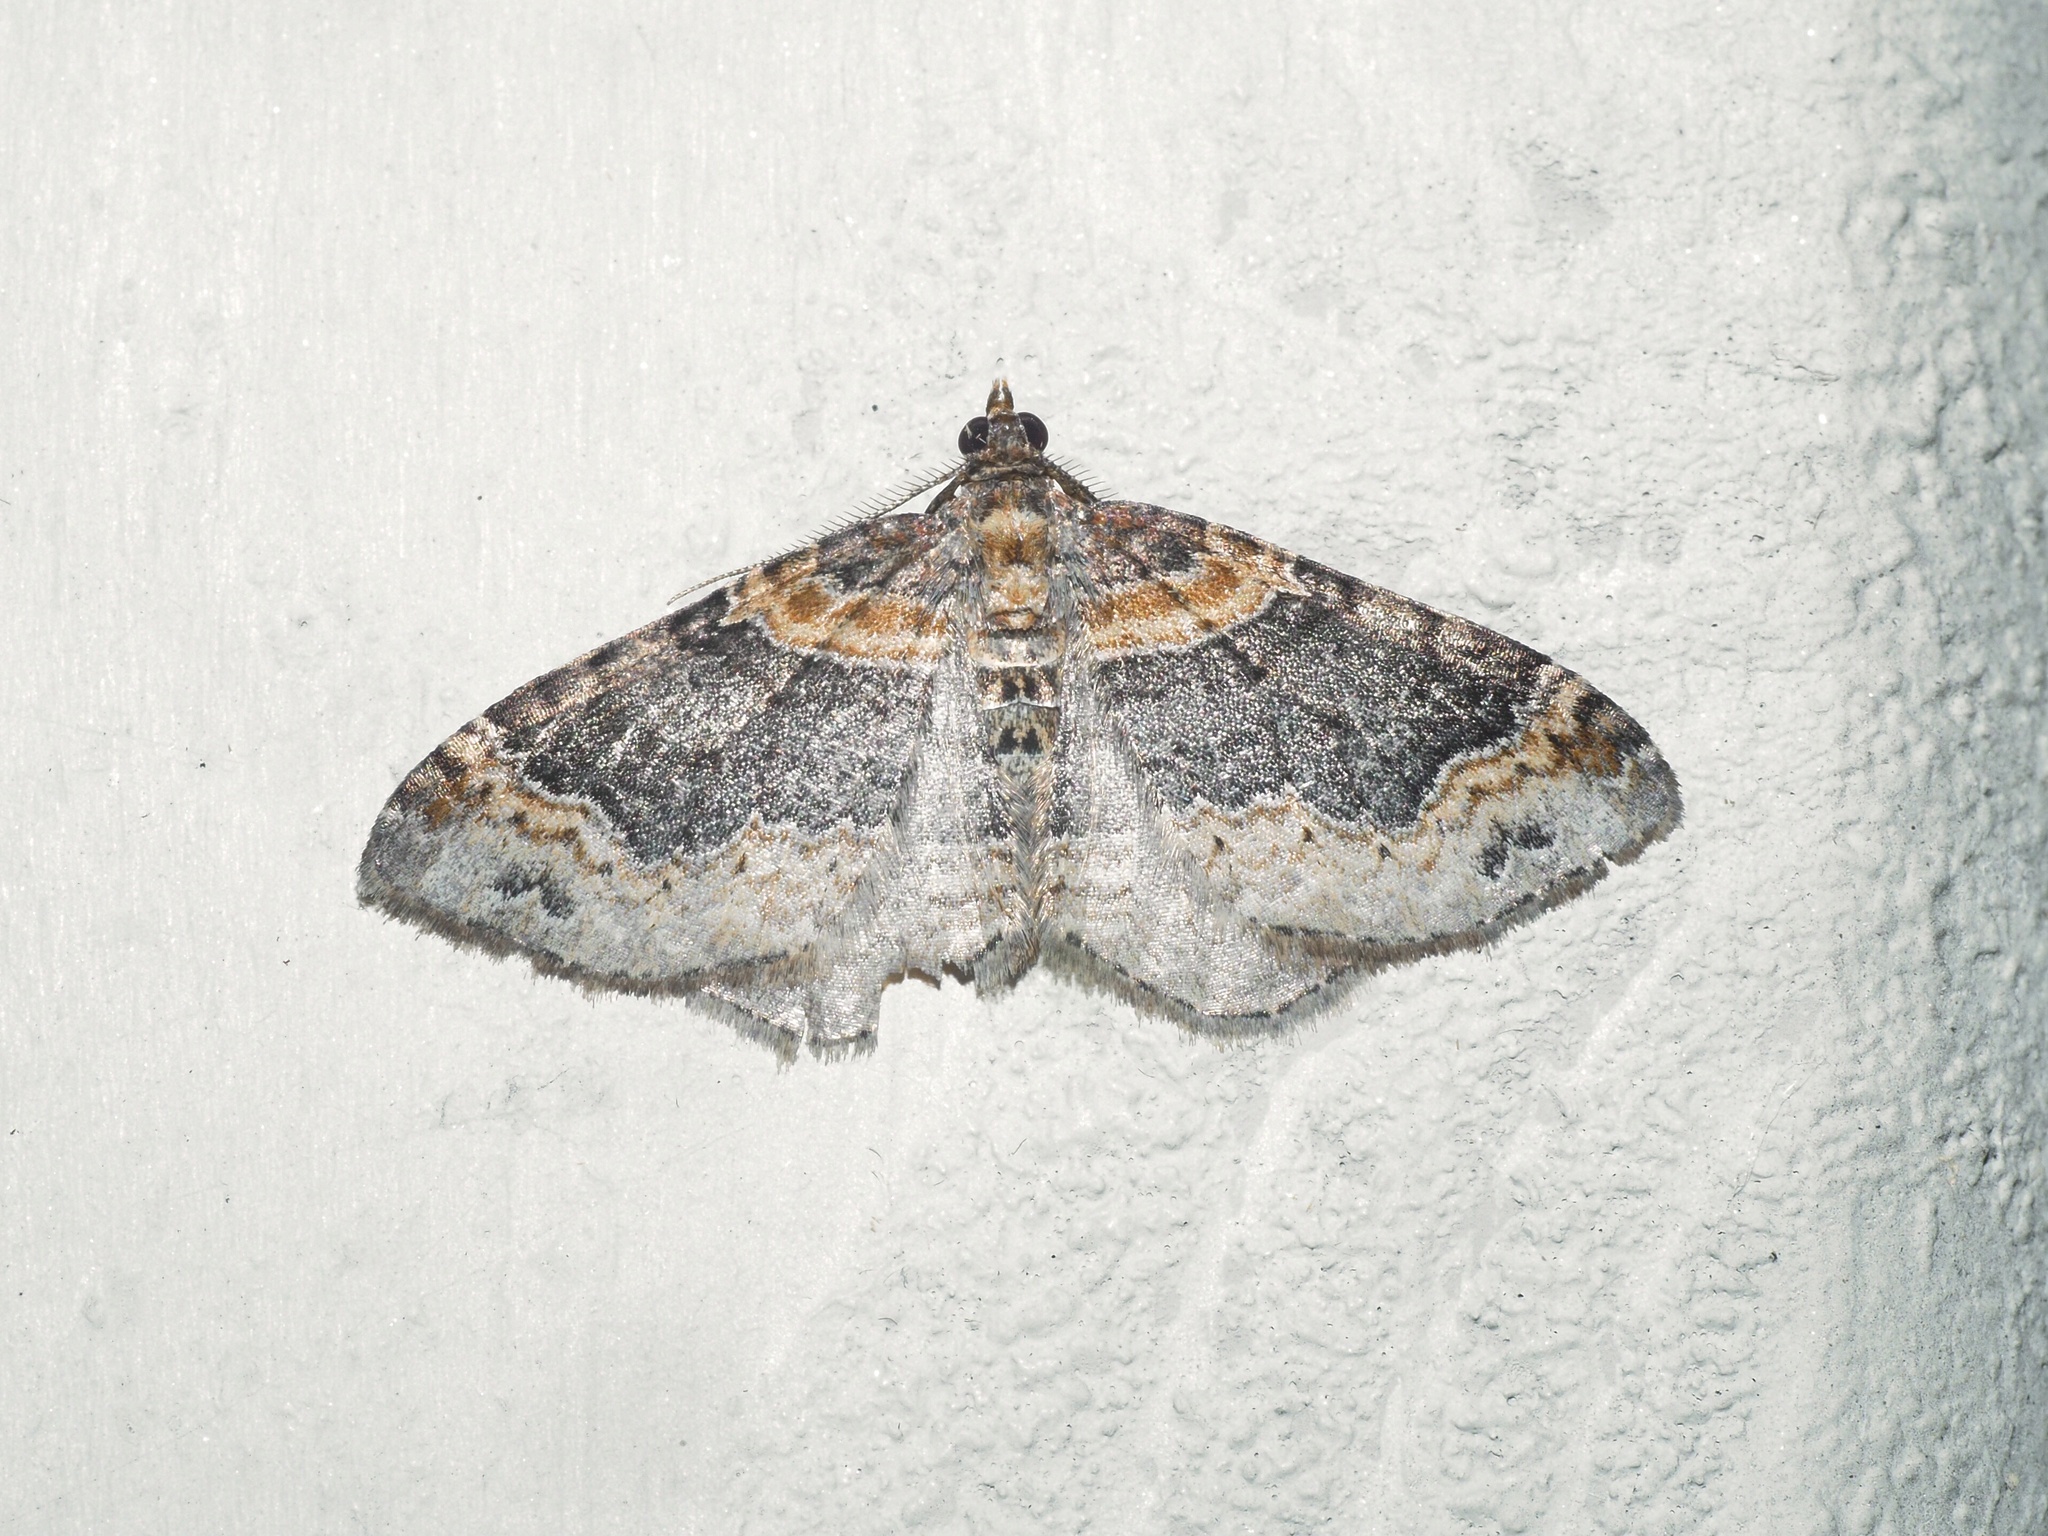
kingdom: Animalia
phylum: Arthropoda
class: Insecta
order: Lepidoptera
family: Geometridae
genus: Xanthorhoe
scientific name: Xanthorhoe ferrugata
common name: Dark-barred twin-spot carpet
